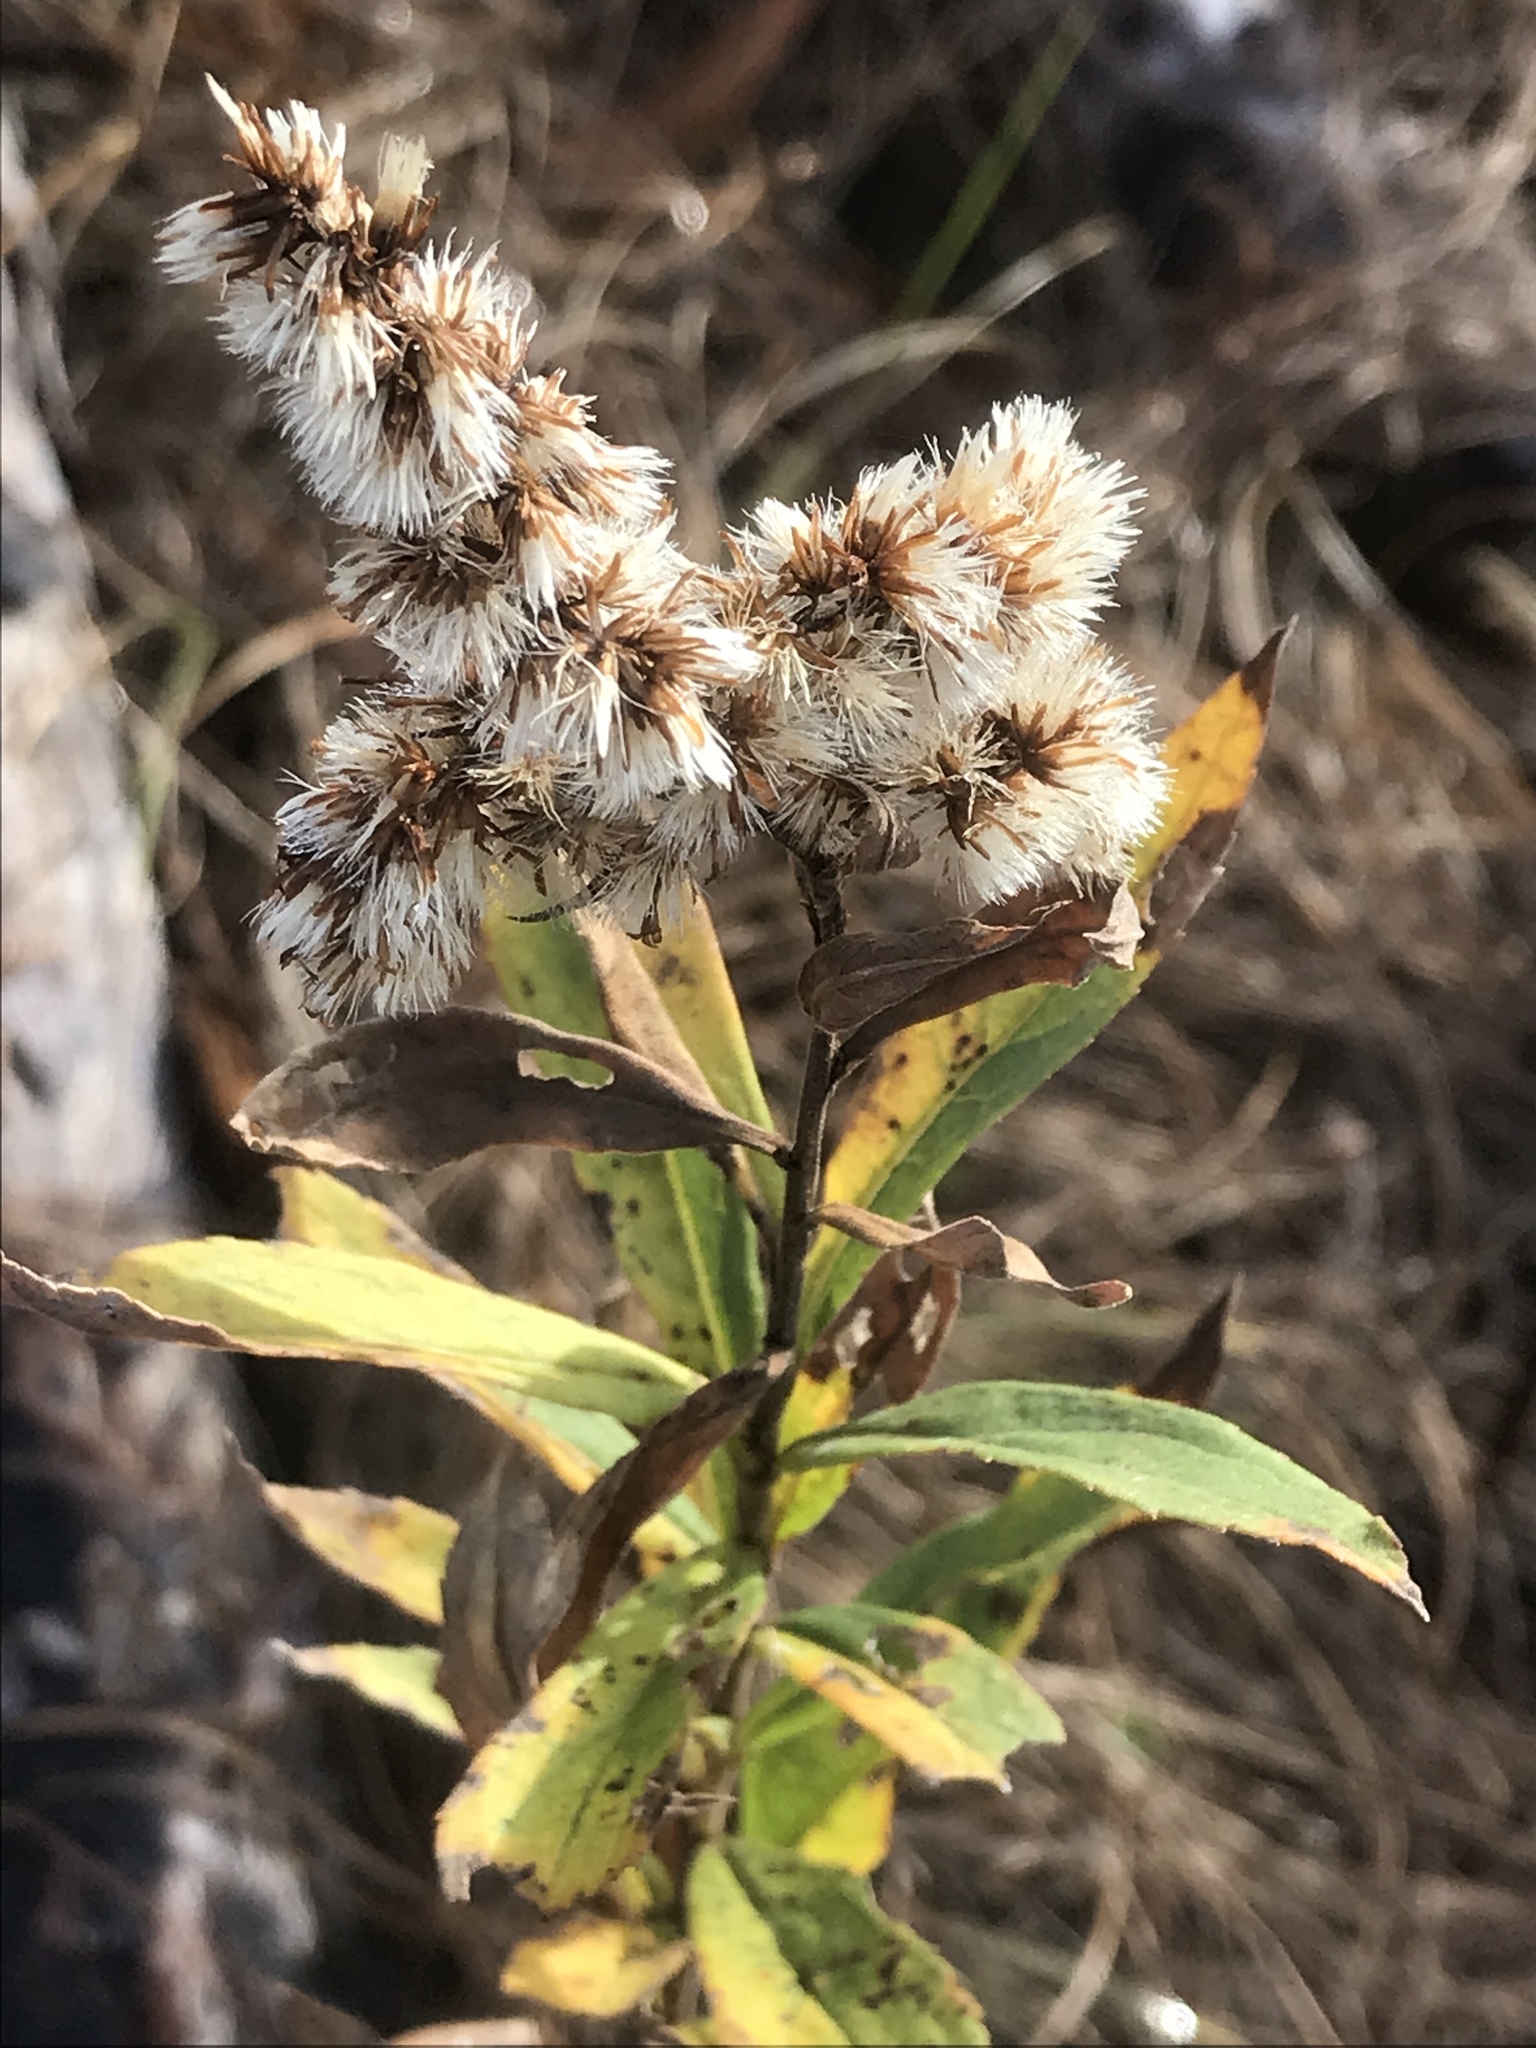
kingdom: Plantae
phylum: Tracheophyta
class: Magnoliopsida
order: Asterales
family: Asteraceae
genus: Solidago
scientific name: Solidago altissima
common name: Late goldenrod
